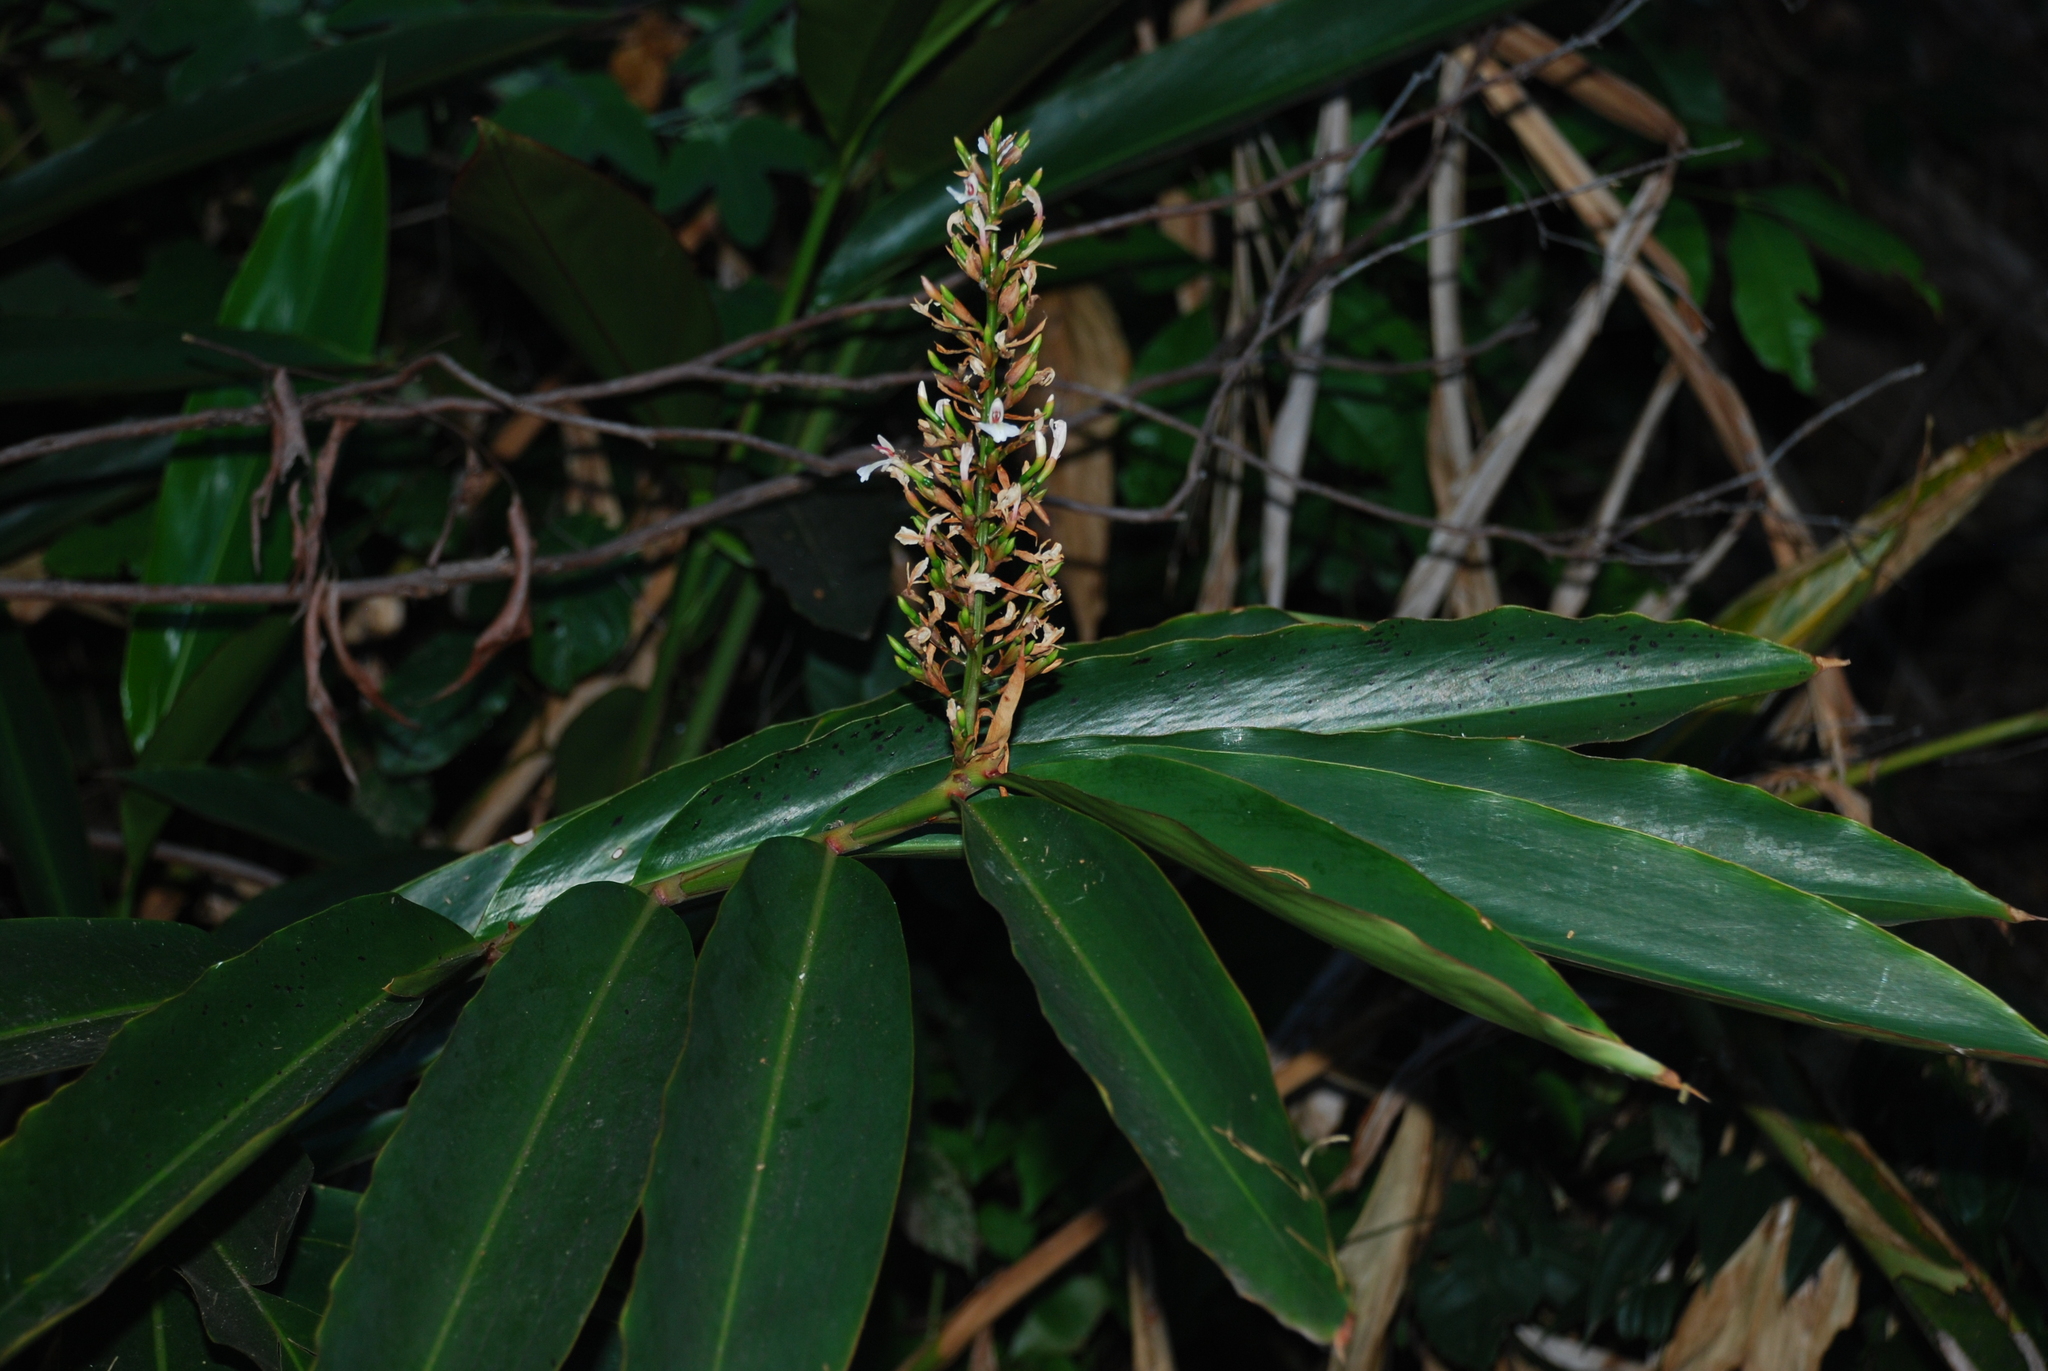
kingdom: Plantae
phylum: Tracheophyta
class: Liliopsida
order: Zingiberales
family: Zingiberaceae
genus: Alpinia
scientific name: Alpinia caerulea
